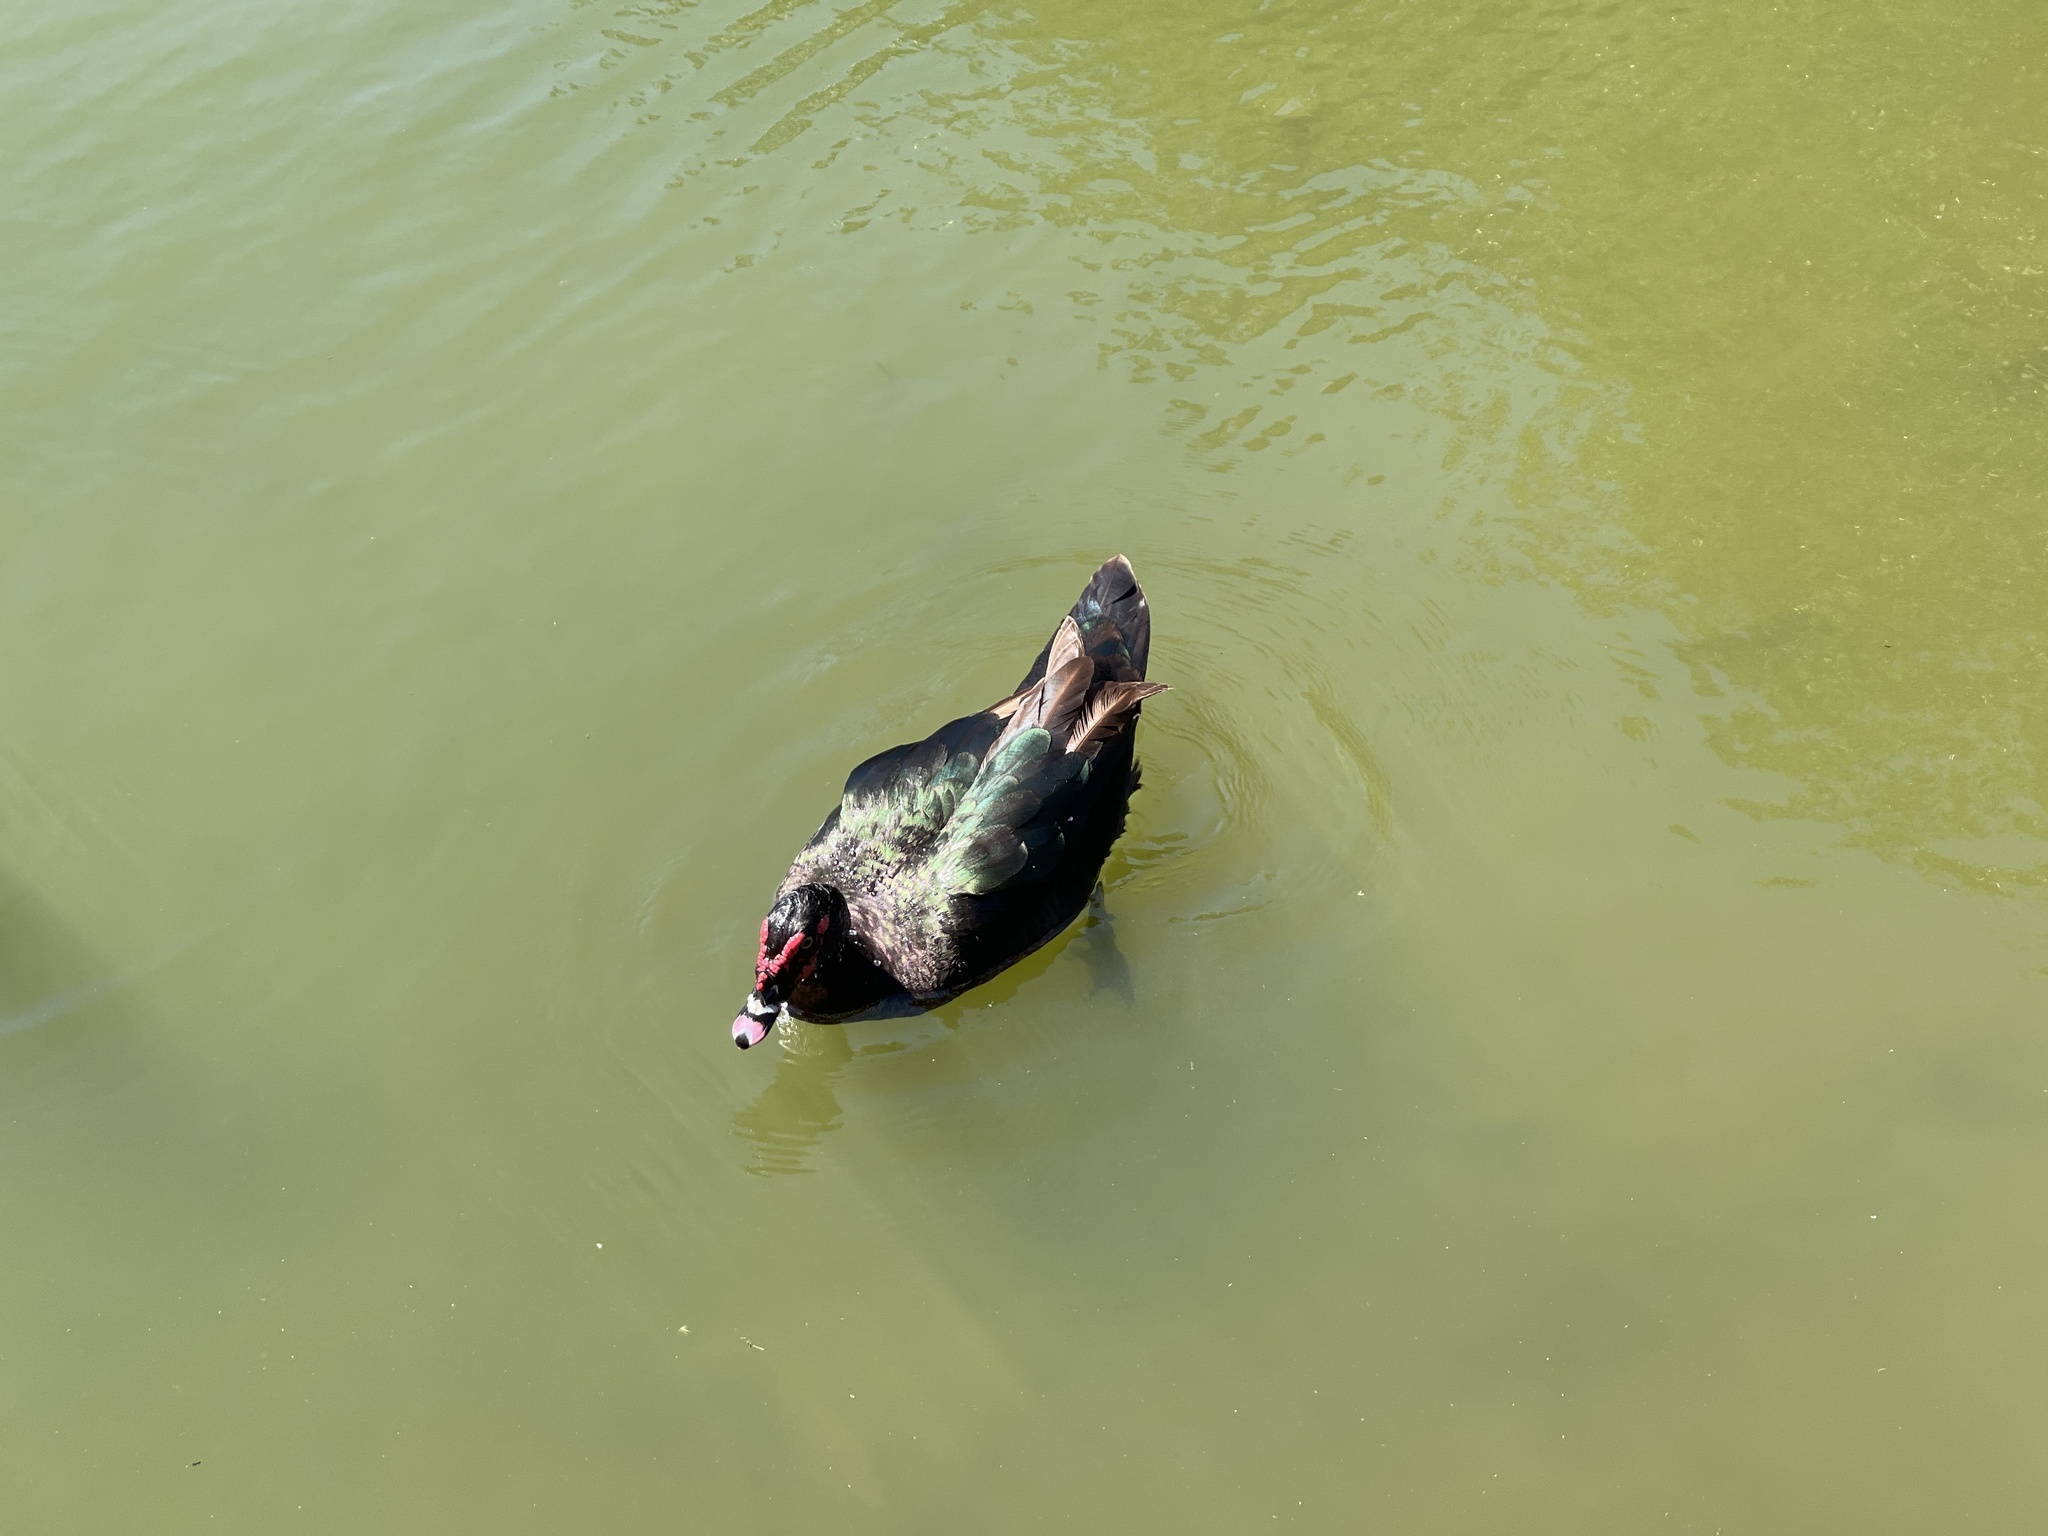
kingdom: Animalia
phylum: Chordata
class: Aves
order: Anseriformes
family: Anatidae
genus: Cairina
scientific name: Cairina moschata
